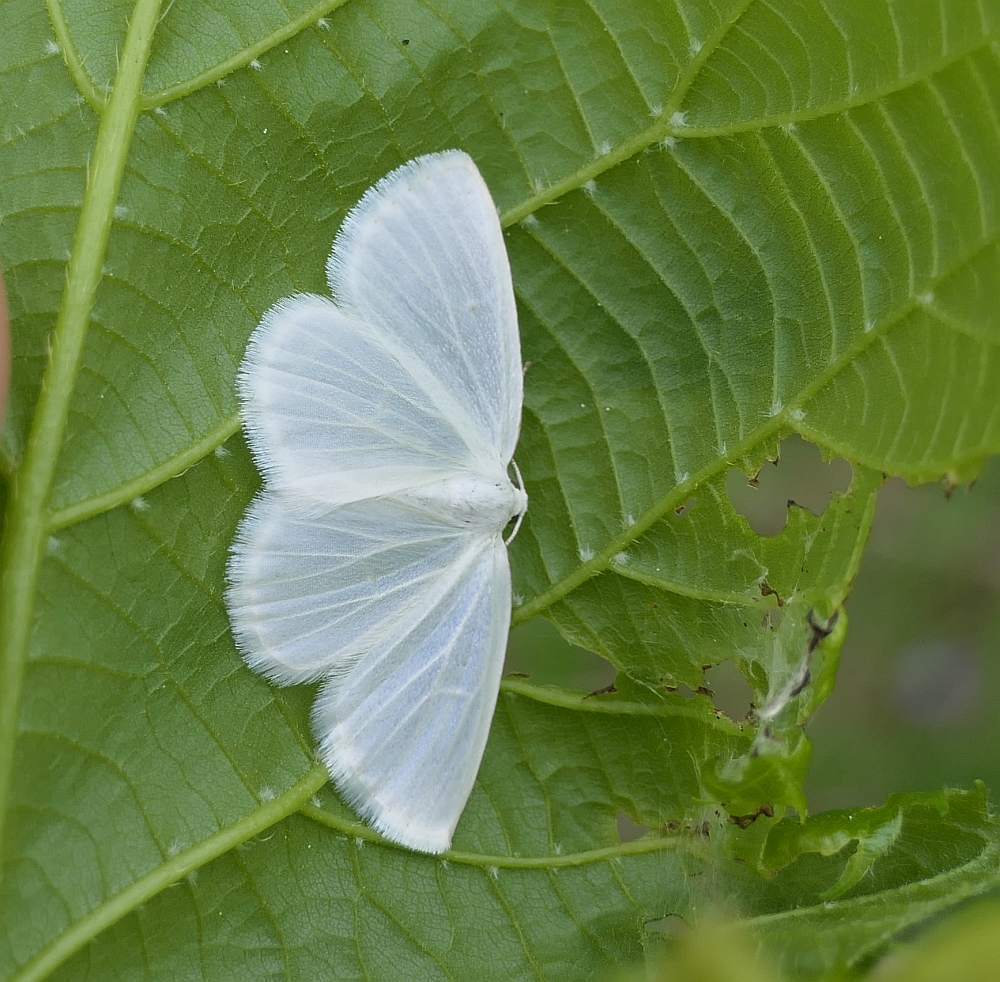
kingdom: Animalia
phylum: Arthropoda
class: Insecta
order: Lepidoptera
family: Geometridae
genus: Lomographa
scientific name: Lomographa vestaliata
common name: White spring moth
